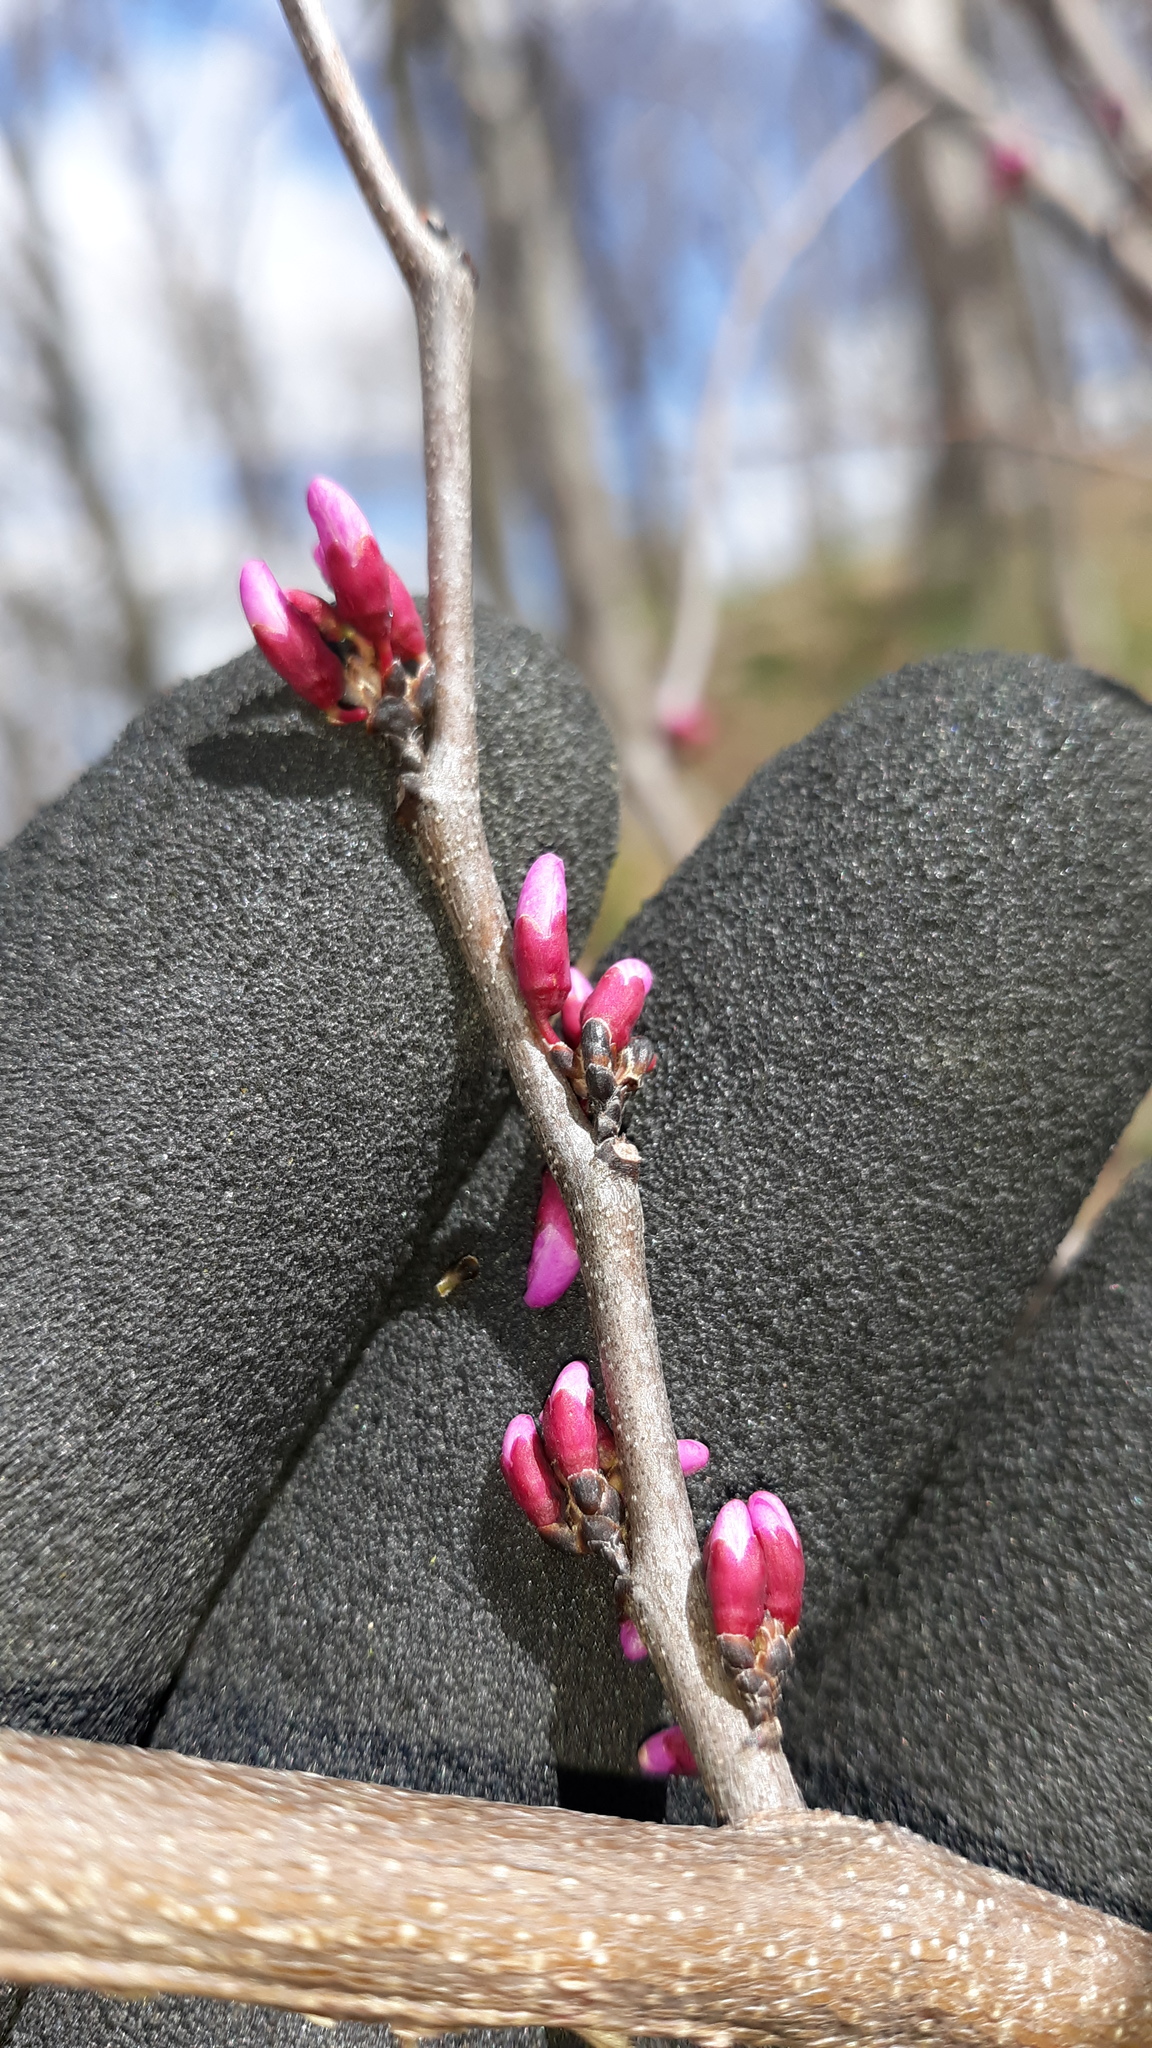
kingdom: Plantae
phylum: Tracheophyta
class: Magnoliopsida
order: Fabales
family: Fabaceae
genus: Cercis
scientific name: Cercis canadensis
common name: Eastern redbud
